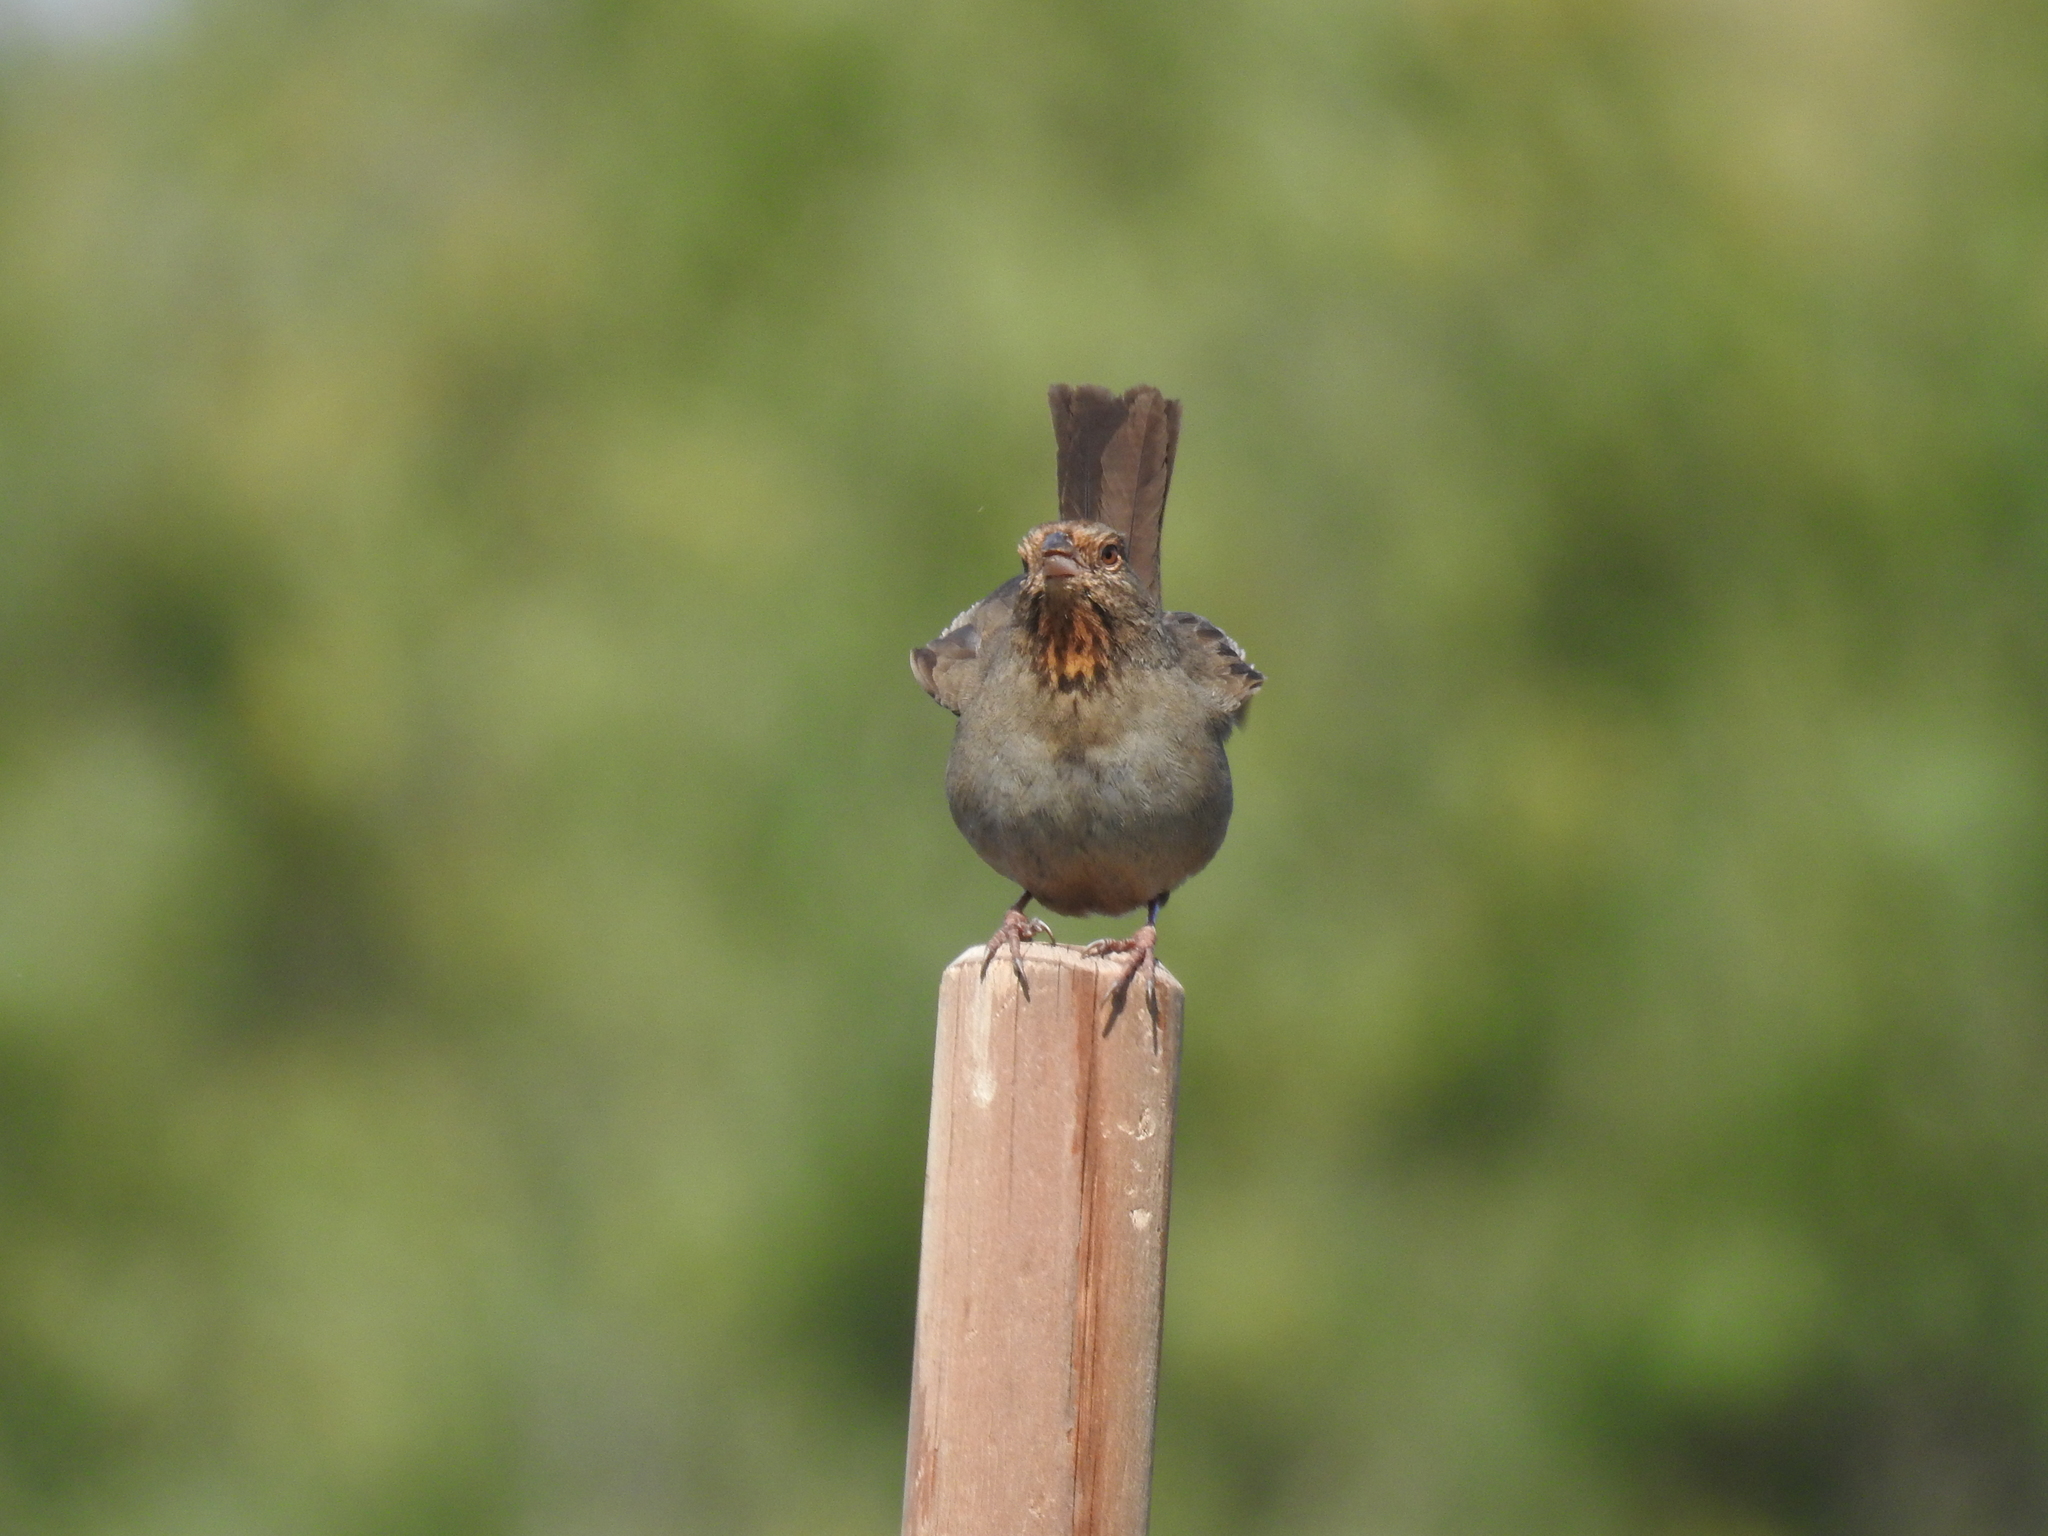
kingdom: Animalia
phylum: Chordata
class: Aves
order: Passeriformes
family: Passerellidae
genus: Melozone
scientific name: Melozone crissalis
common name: California towhee
